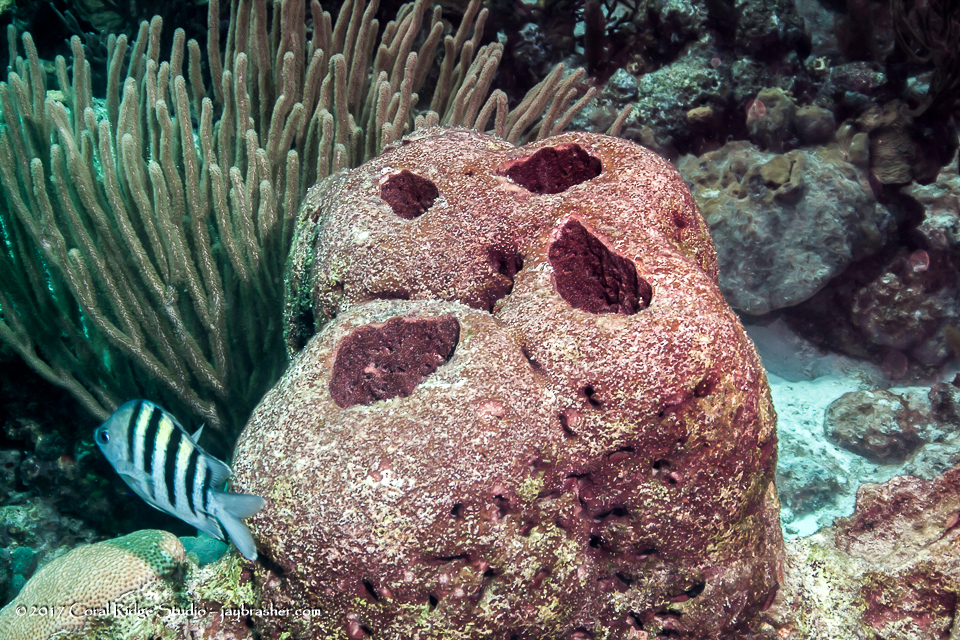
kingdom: Animalia
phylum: Porifera
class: Demospongiae
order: Biemnida
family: Biemnidae
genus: Neofibularia
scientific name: Neofibularia nolitangere
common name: Do-not-touch-me sponge
